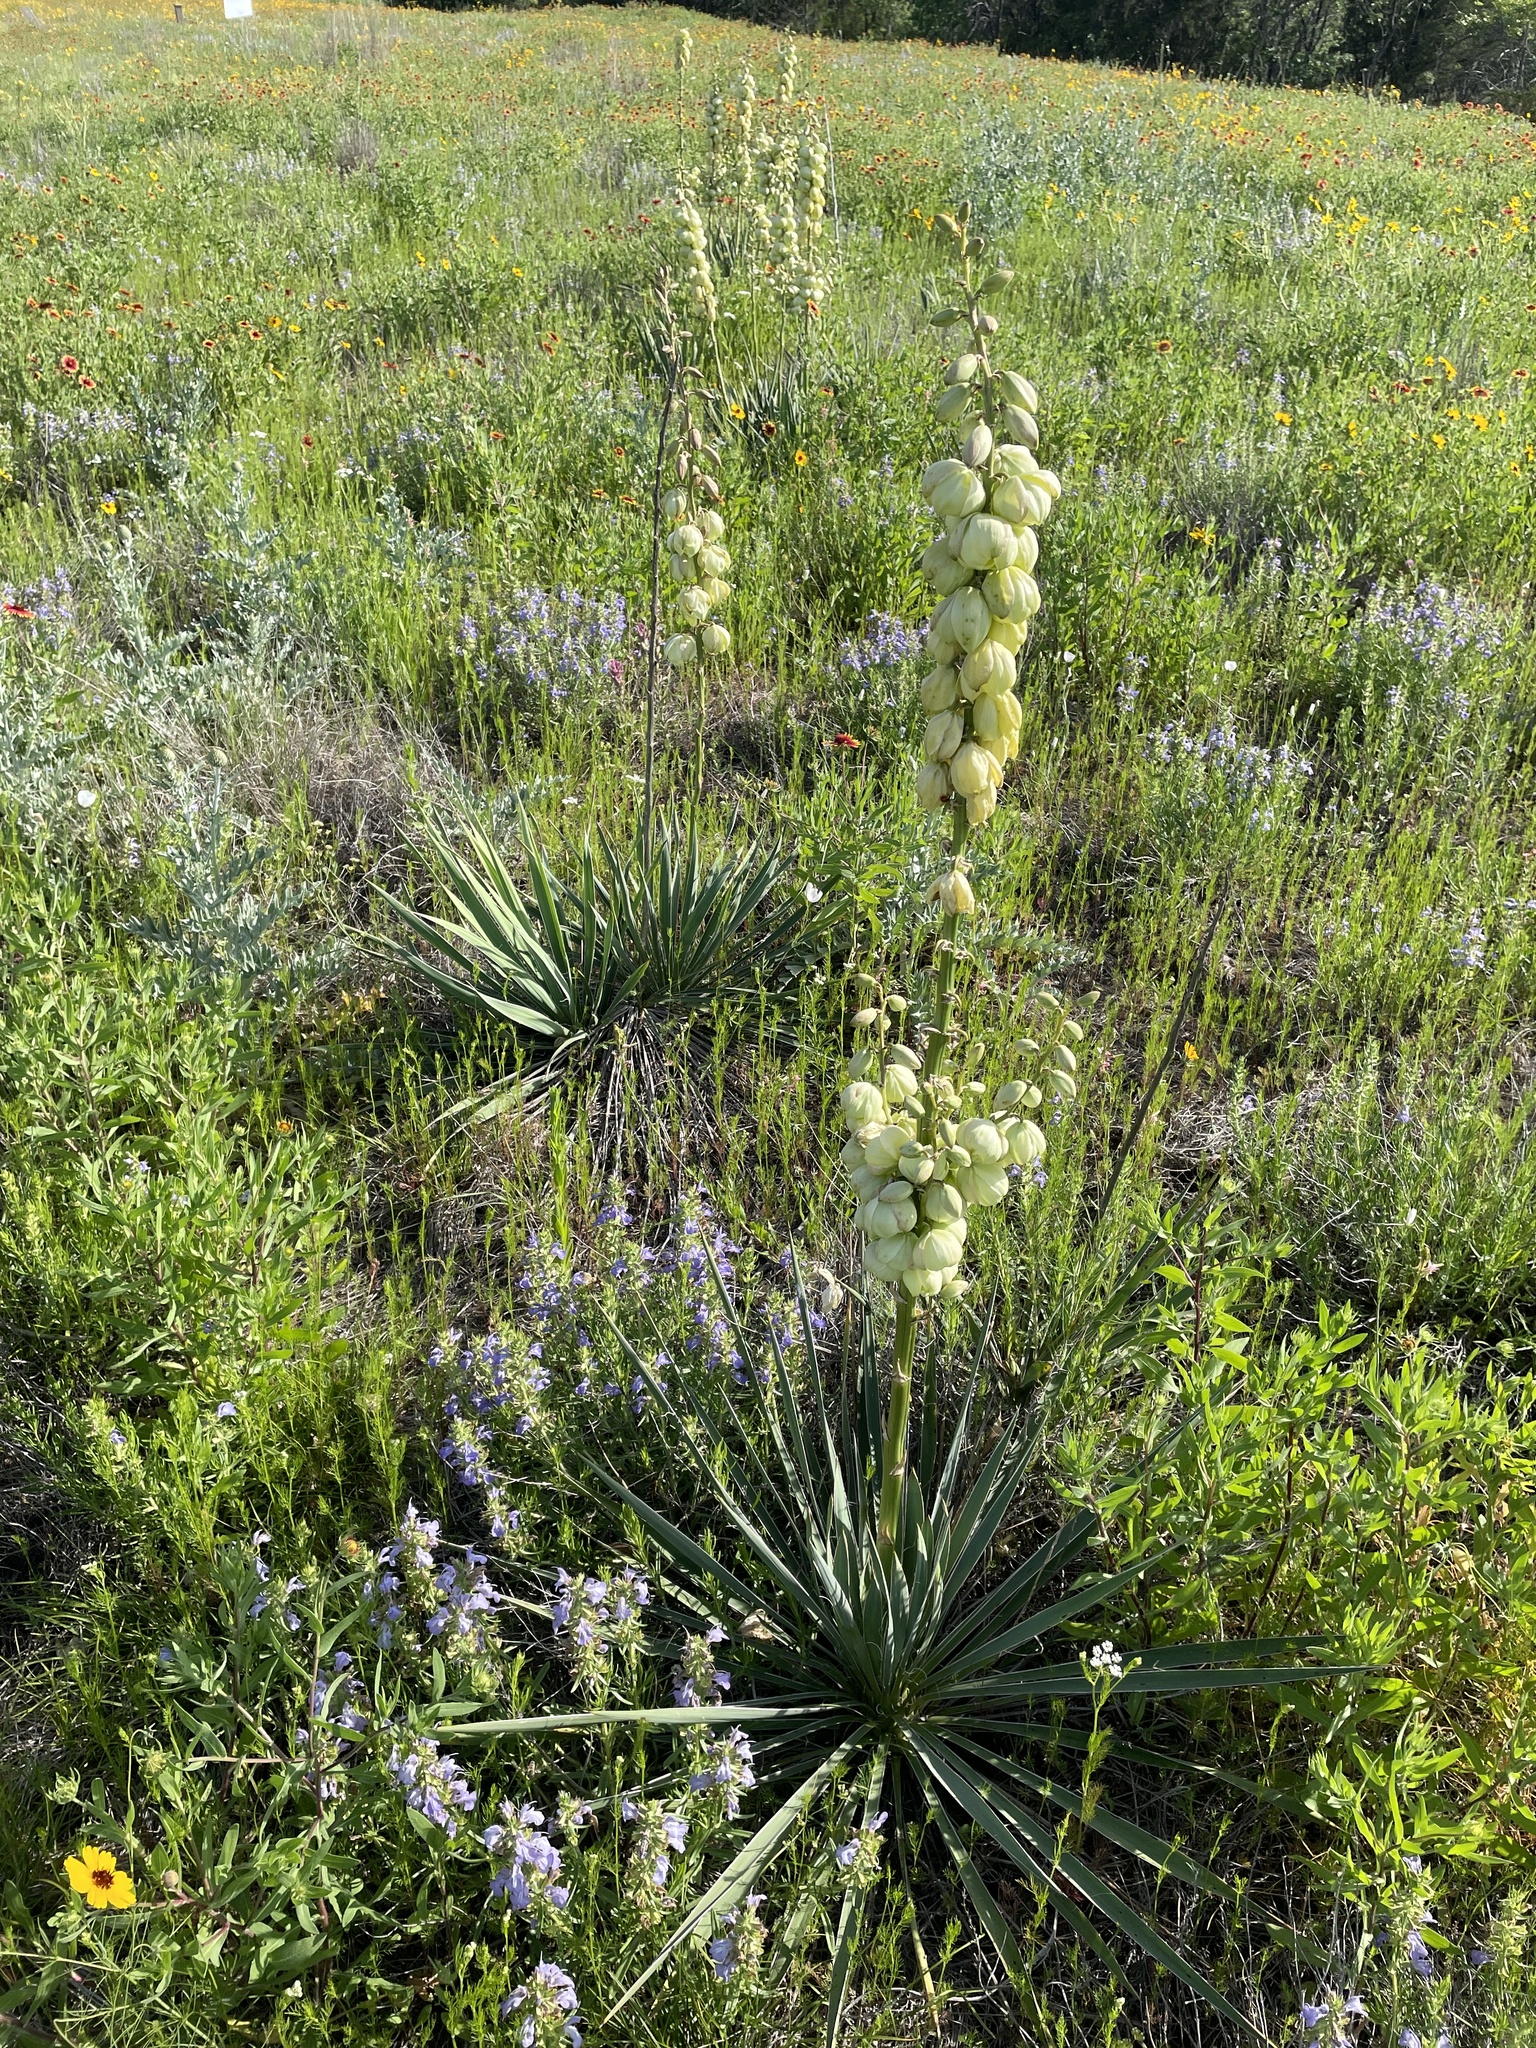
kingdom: Plantae
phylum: Tracheophyta
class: Liliopsida
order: Asparagales
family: Asparagaceae
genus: Yucca
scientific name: Yucca arkansana
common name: Arkansas yucca
